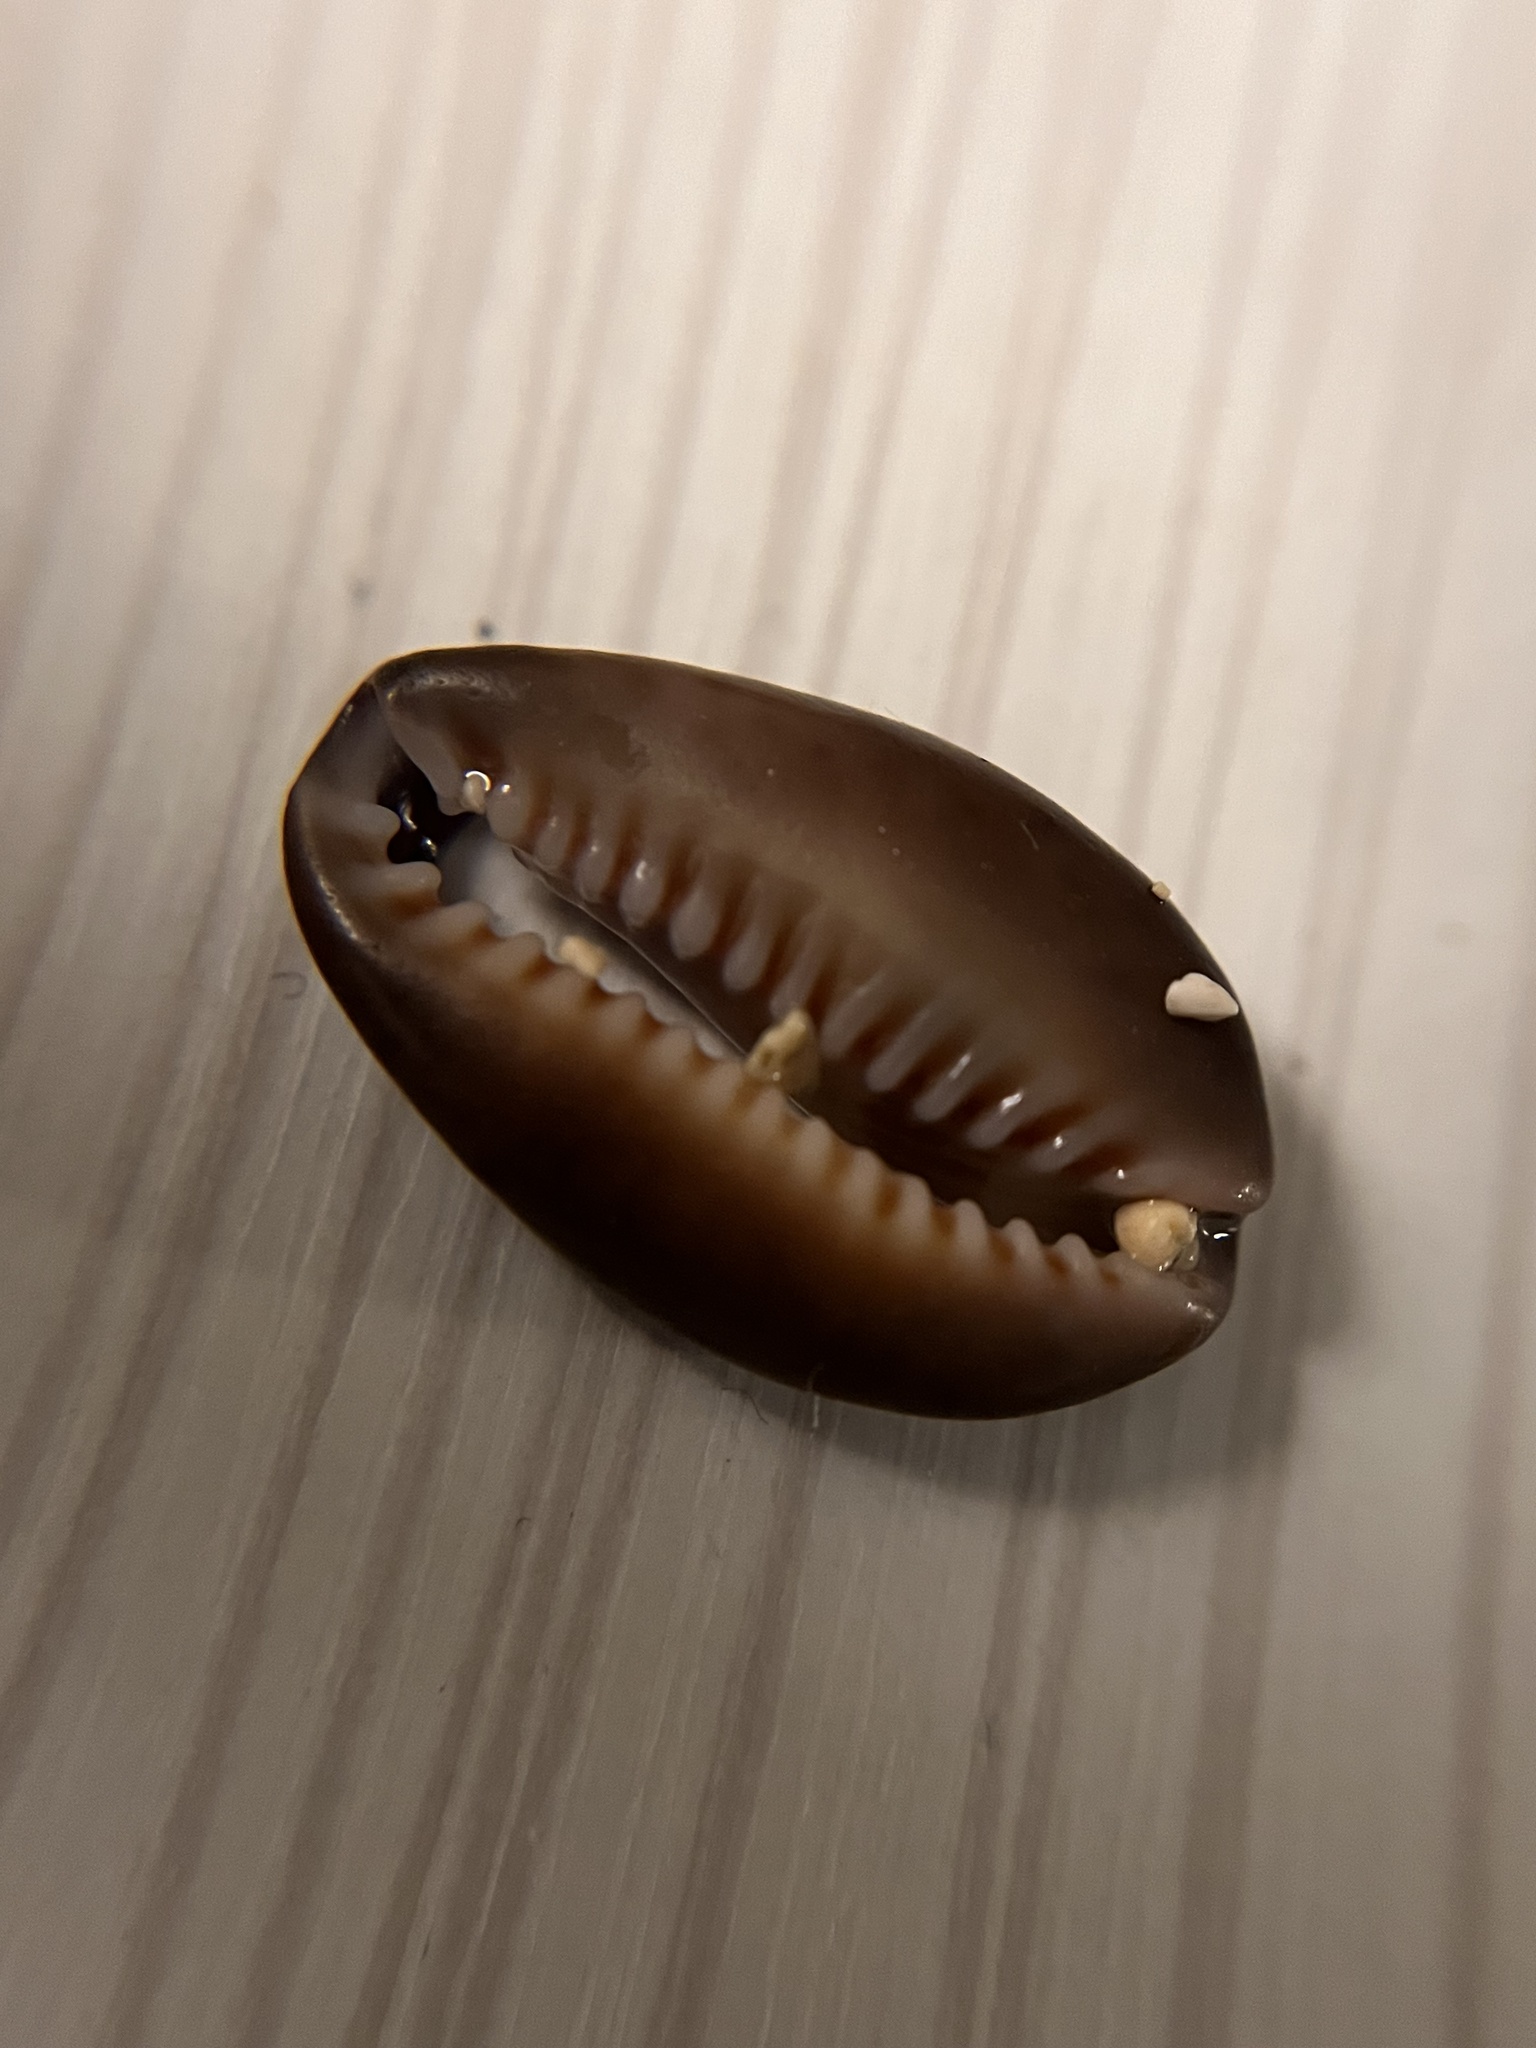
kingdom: Animalia
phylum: Mollusca
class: Gastropoda
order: Littorinimorpha
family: Cypraeidae
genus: Monetaria
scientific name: Monetaria caputophidii
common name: Snake's head cowry
